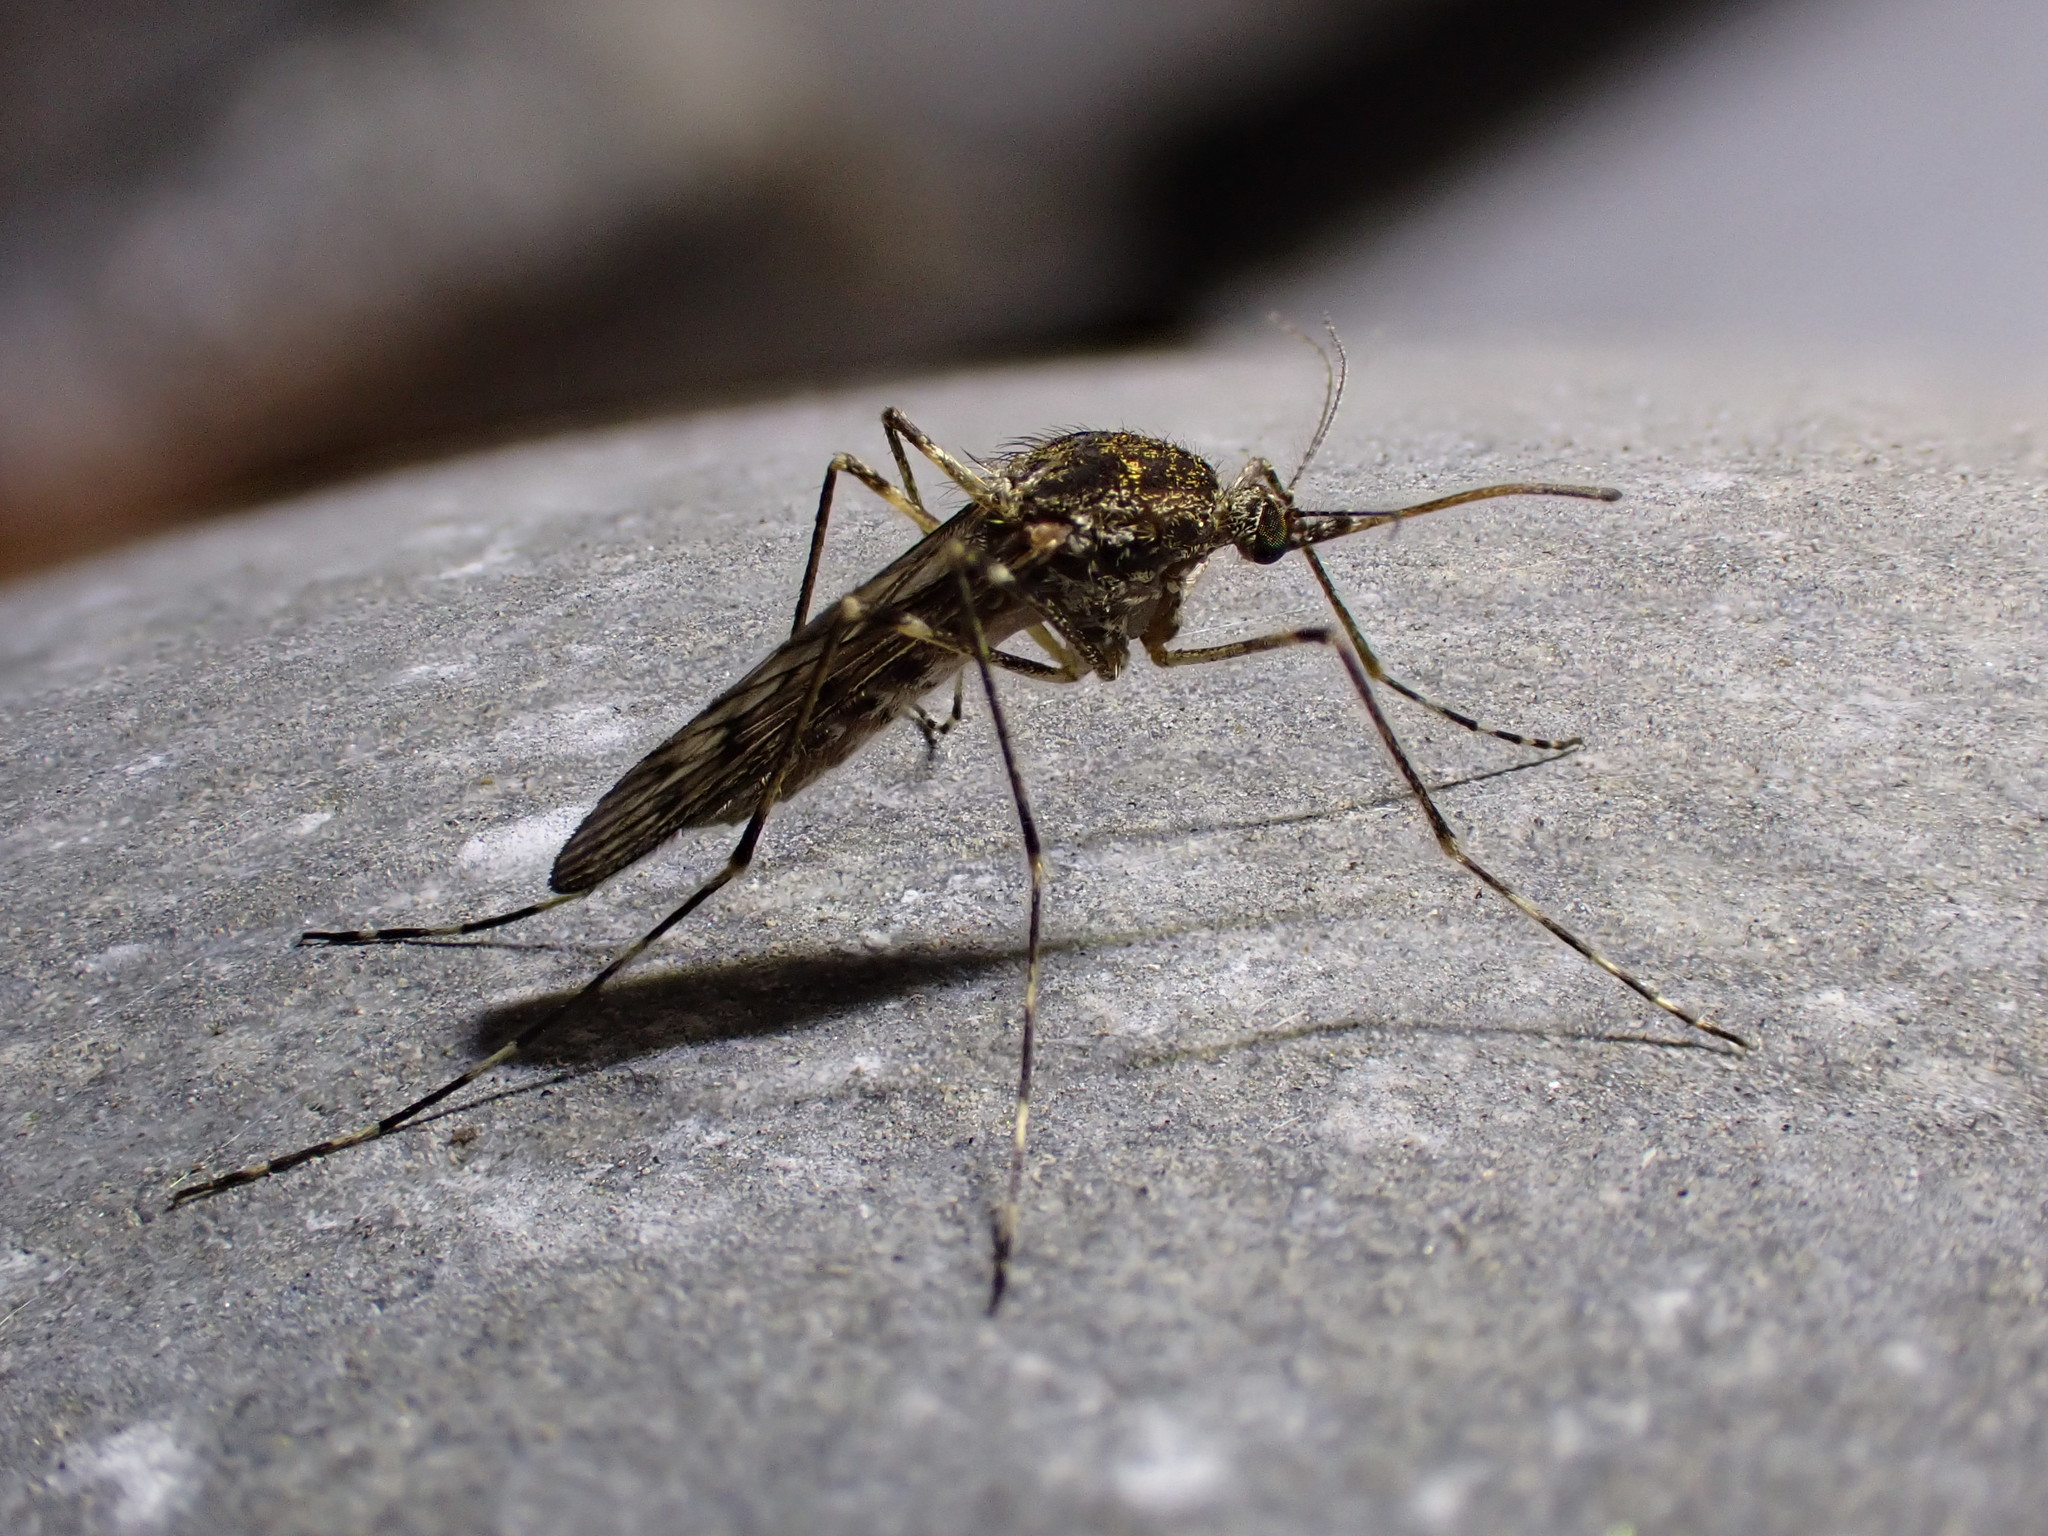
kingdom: Animalia
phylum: Arthropoda
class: Insecta
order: Diptera
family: Culicidae
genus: Culiseta
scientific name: Culiseta annulata
